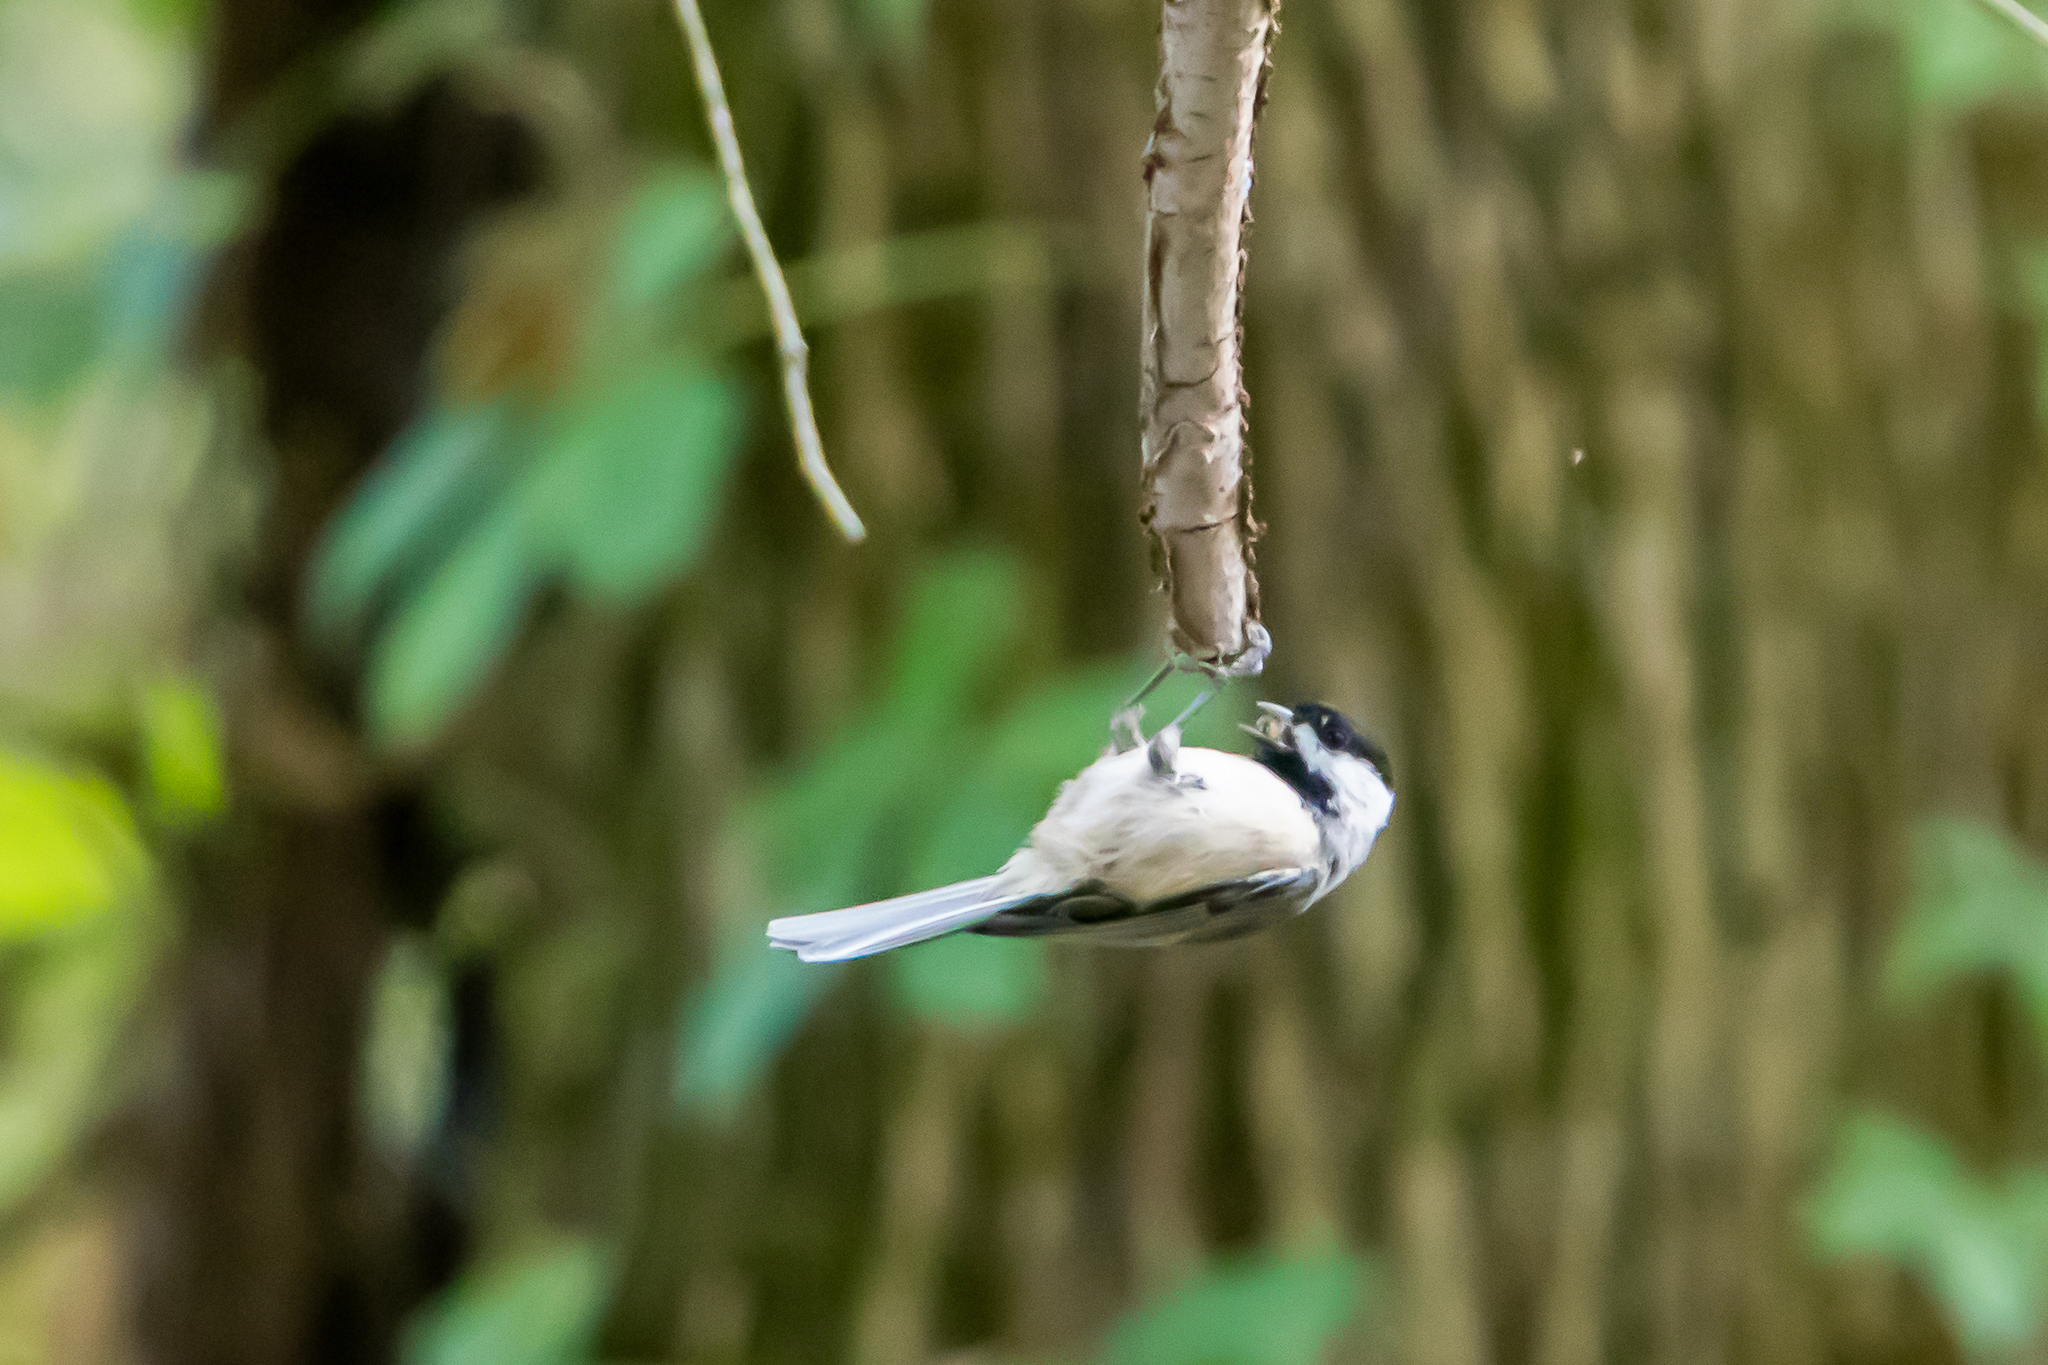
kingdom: Animalia
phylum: Chordata
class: Aves
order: Passeriformes
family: Paridae
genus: Poecile
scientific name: Poecile carolinensis
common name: Carolina chickadee
